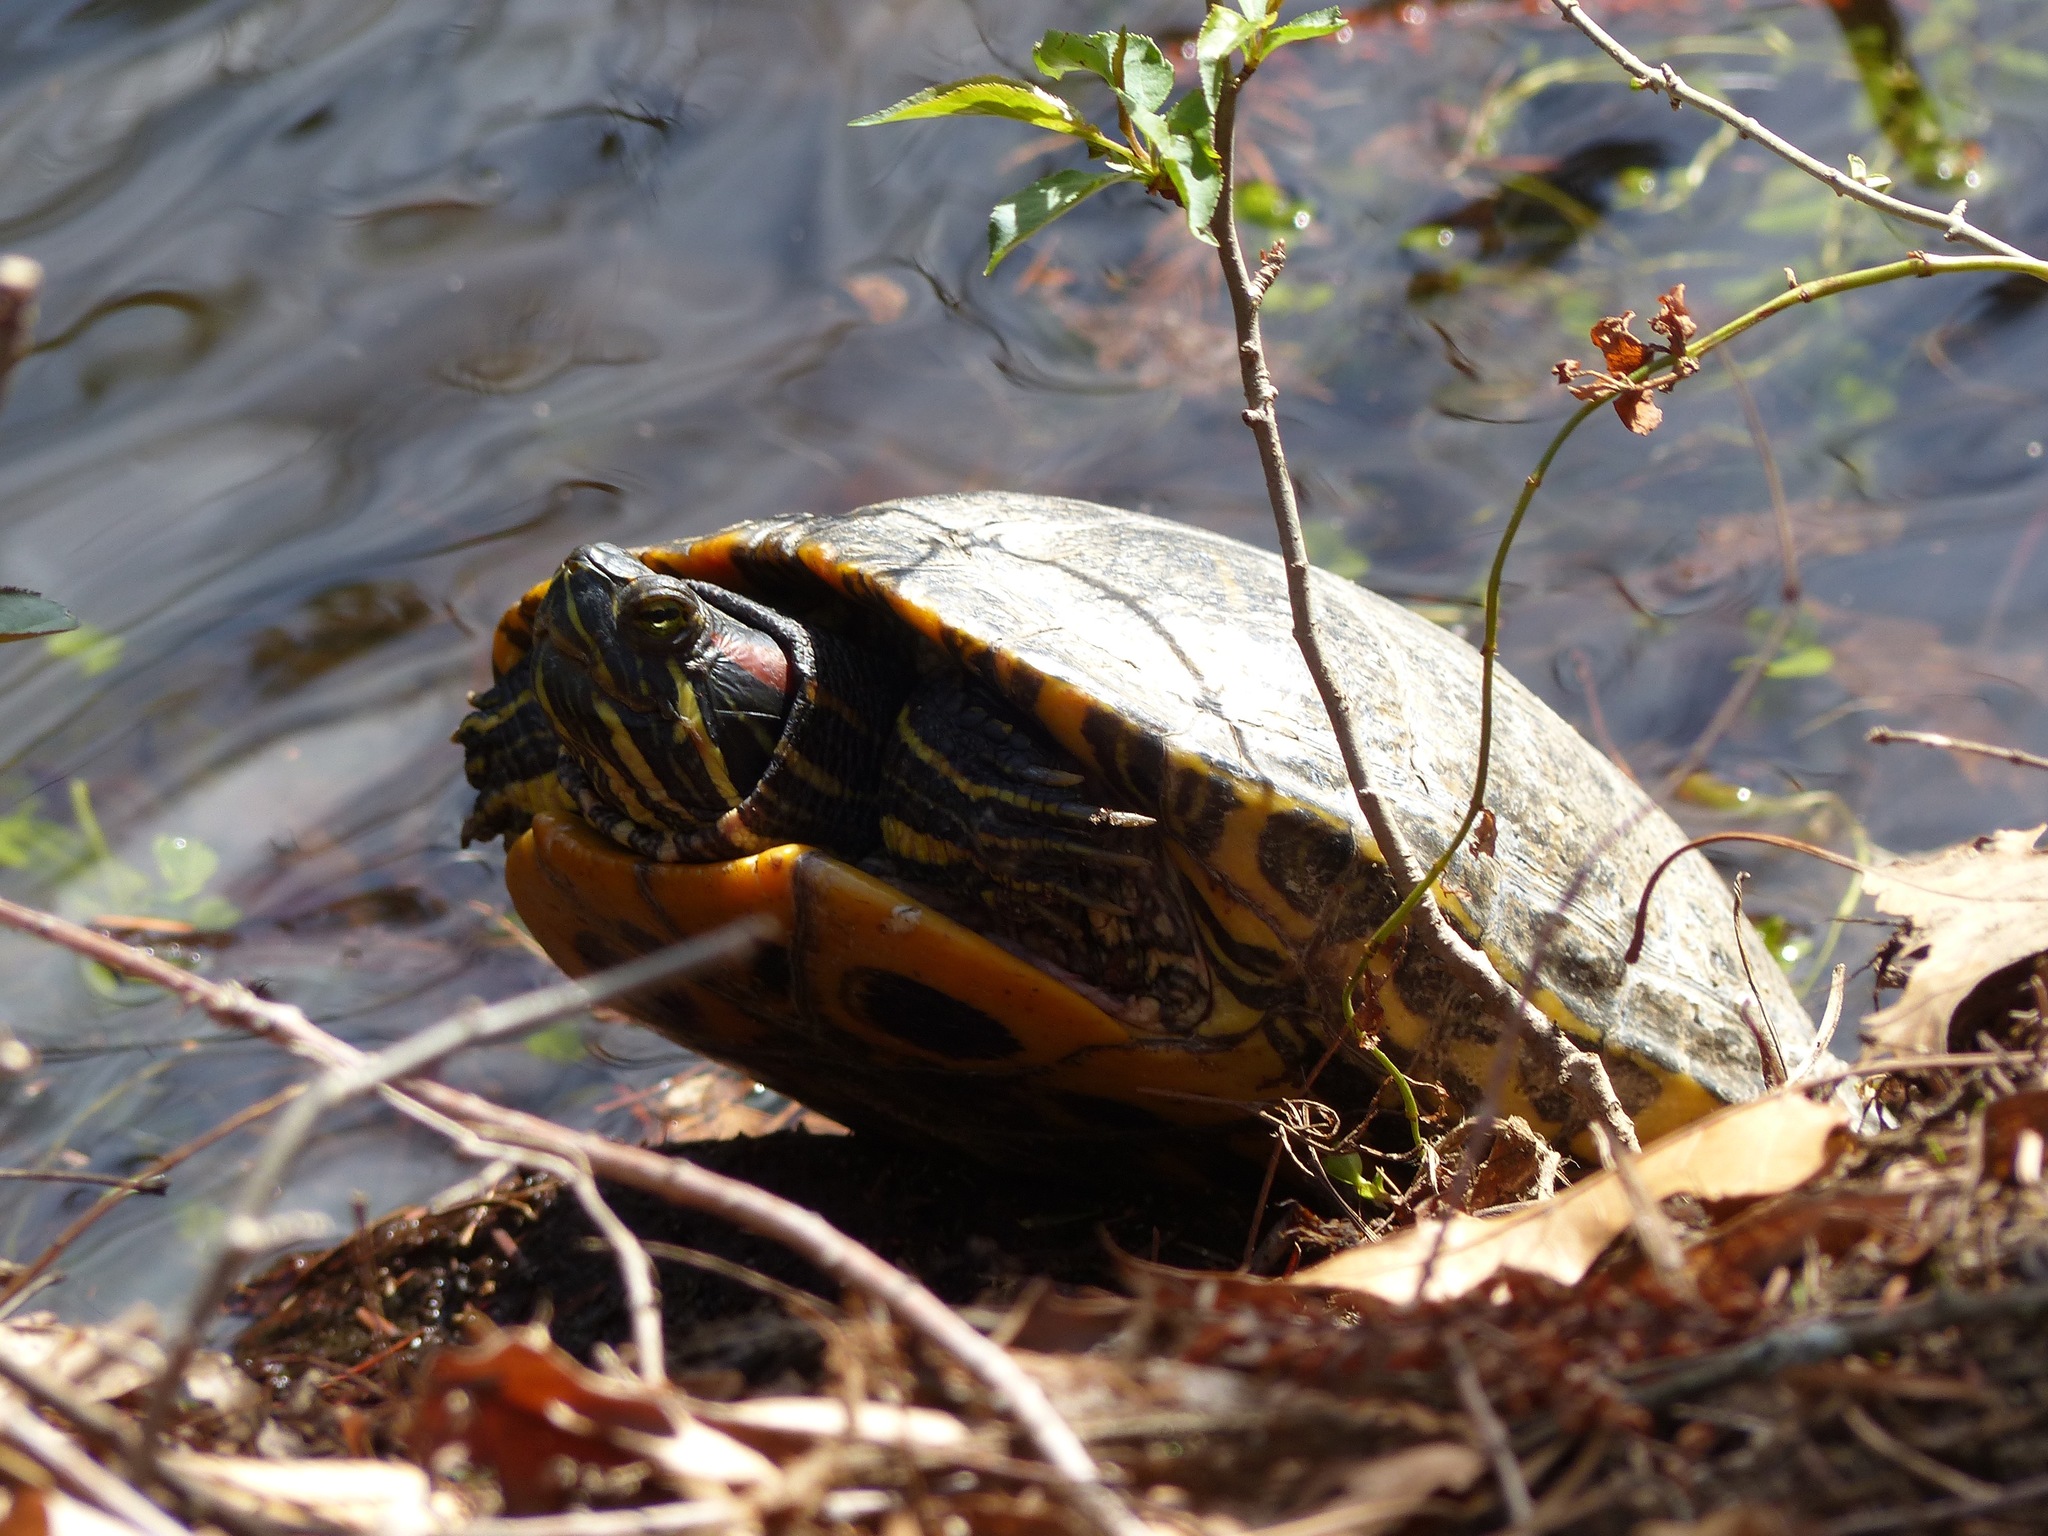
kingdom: Animalia
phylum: Chordata
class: Testudines
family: Emydidae
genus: Trachemys
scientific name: Trachemys scripta
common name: Slider
